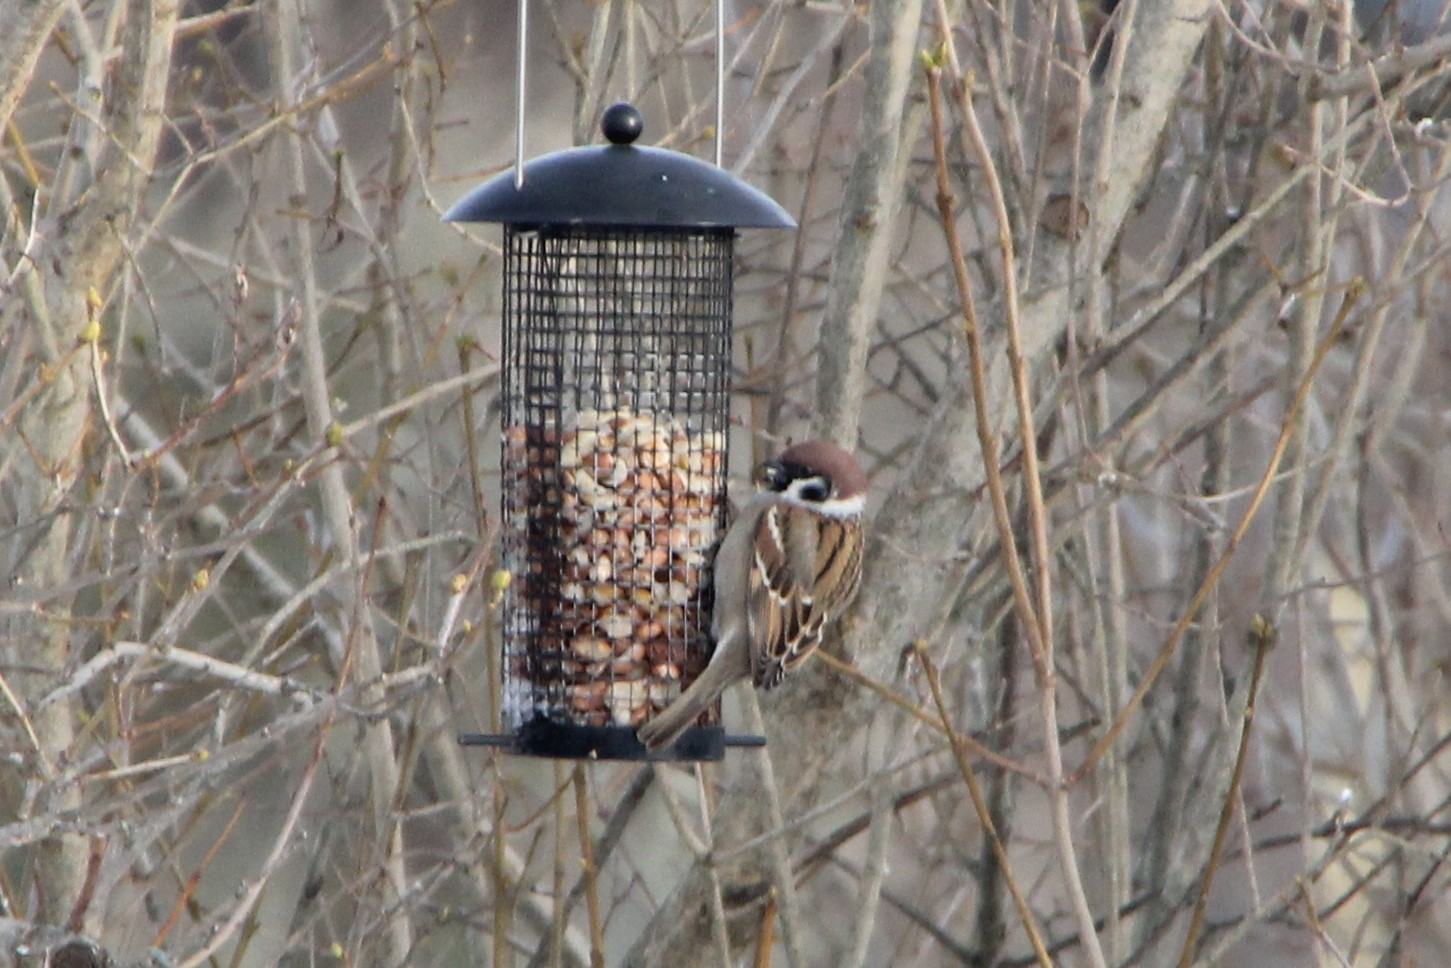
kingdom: Animalia
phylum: Chordata
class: Aves
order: Passeriformes
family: Passeridae
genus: Passer
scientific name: Passer montanus
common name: Eurasian tree sparrow
